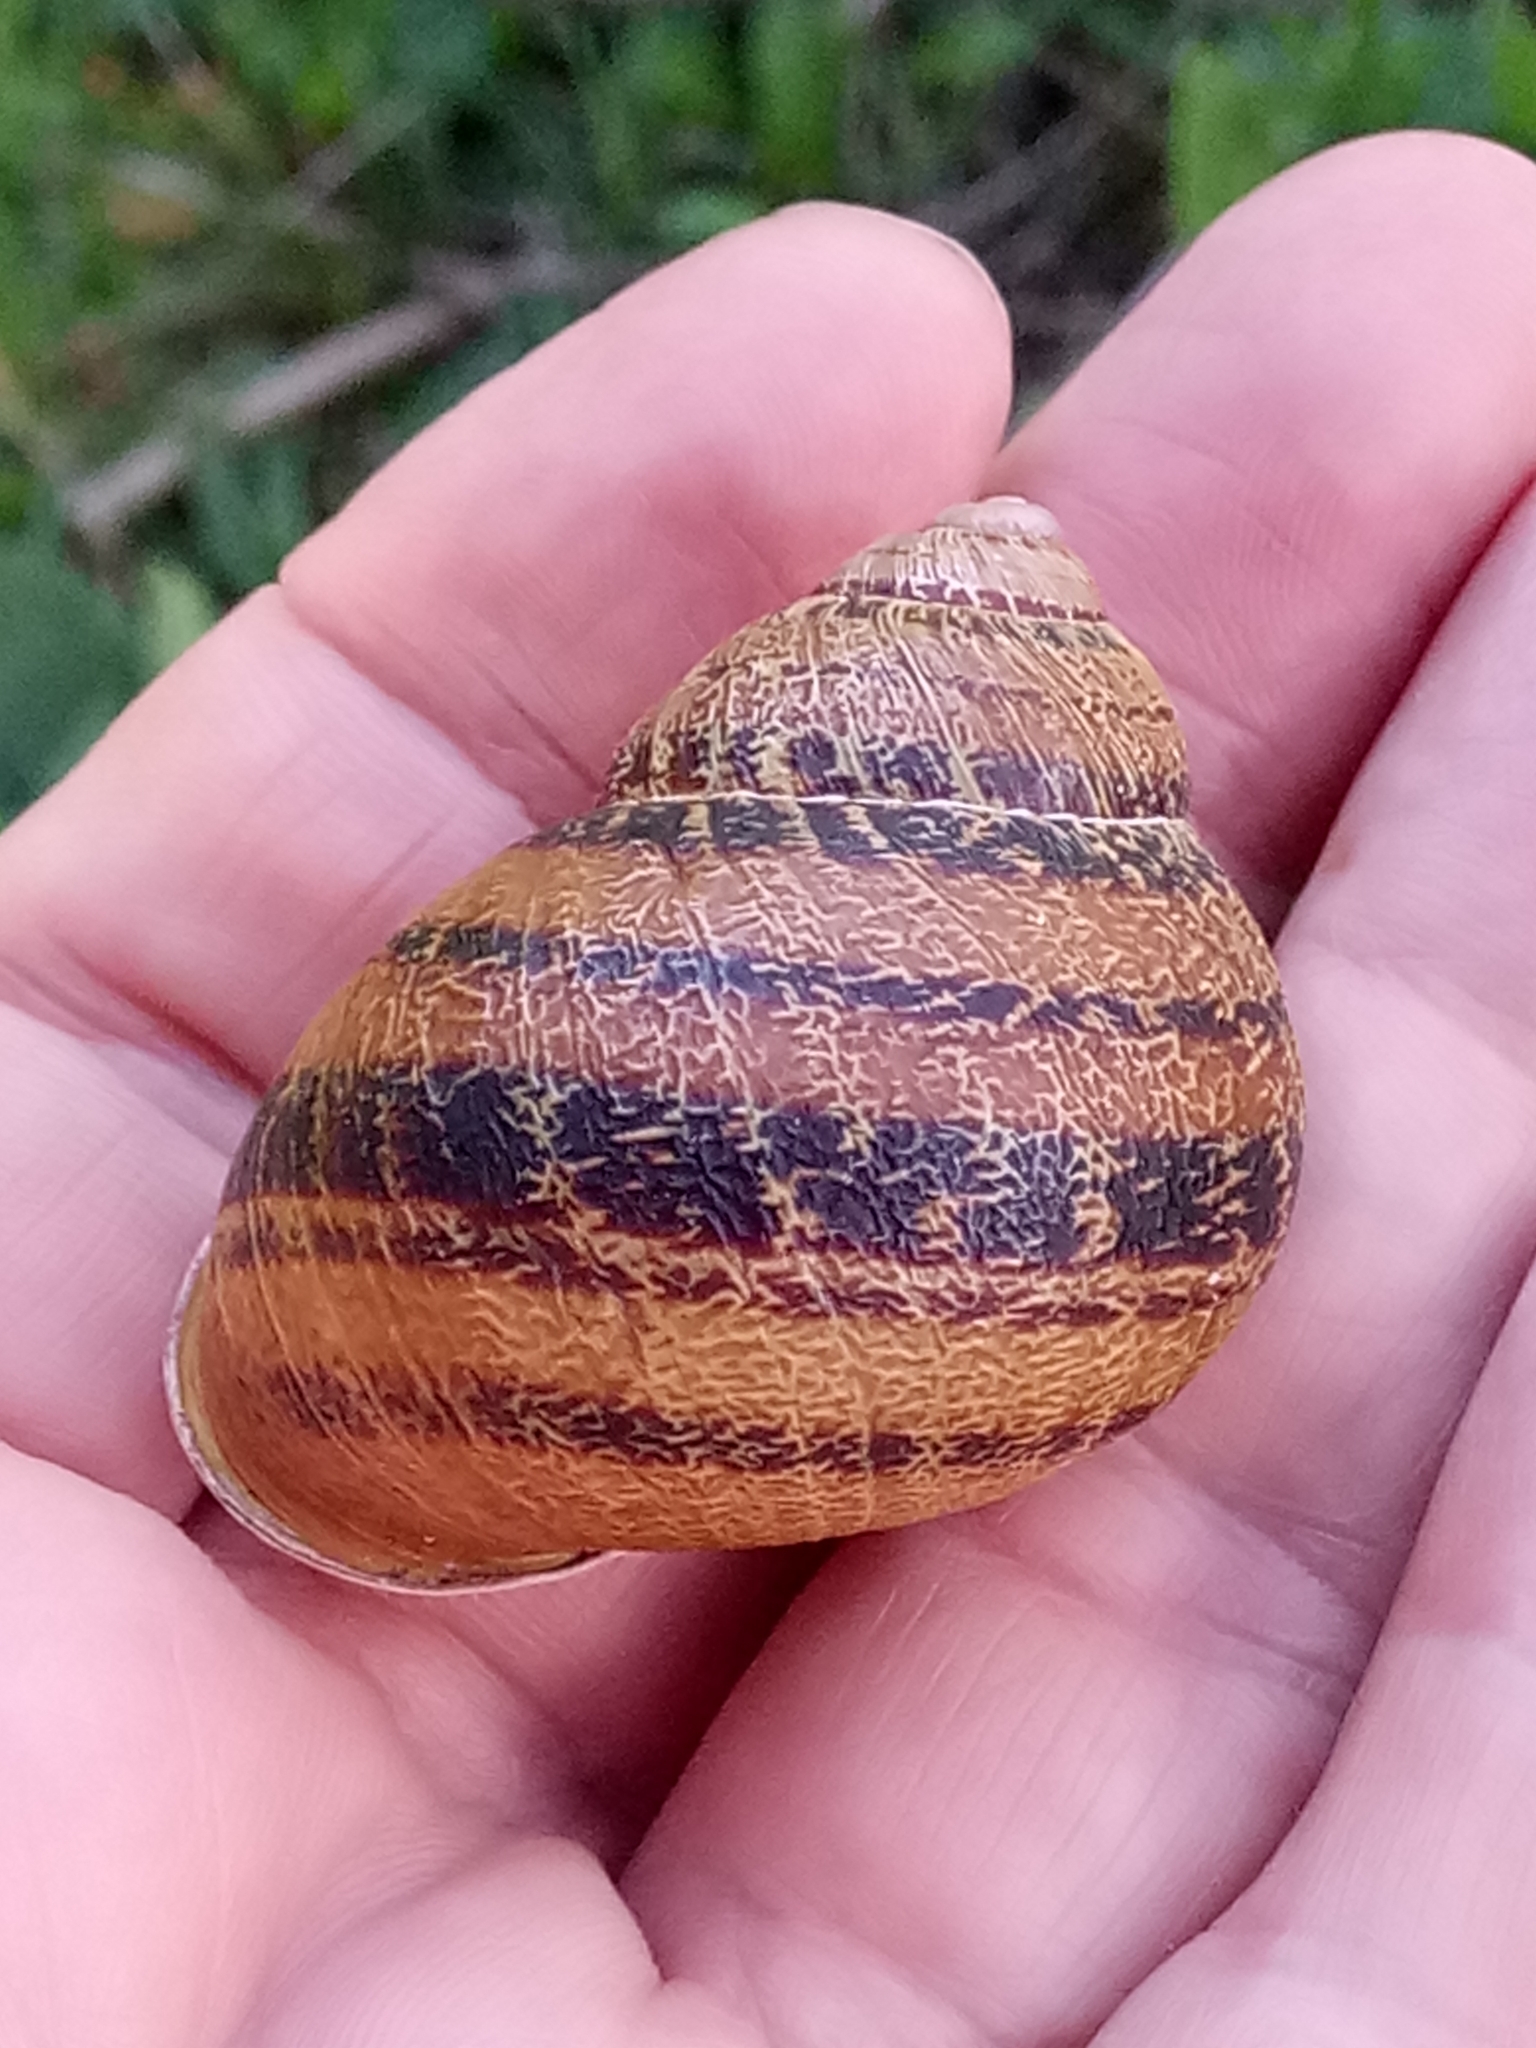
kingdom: Animalia
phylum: Mollusca
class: Gastropoda
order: Stylommatophora
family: Helicidae
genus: Cornu
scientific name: Cornu aspersum
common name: Brown garden snail
